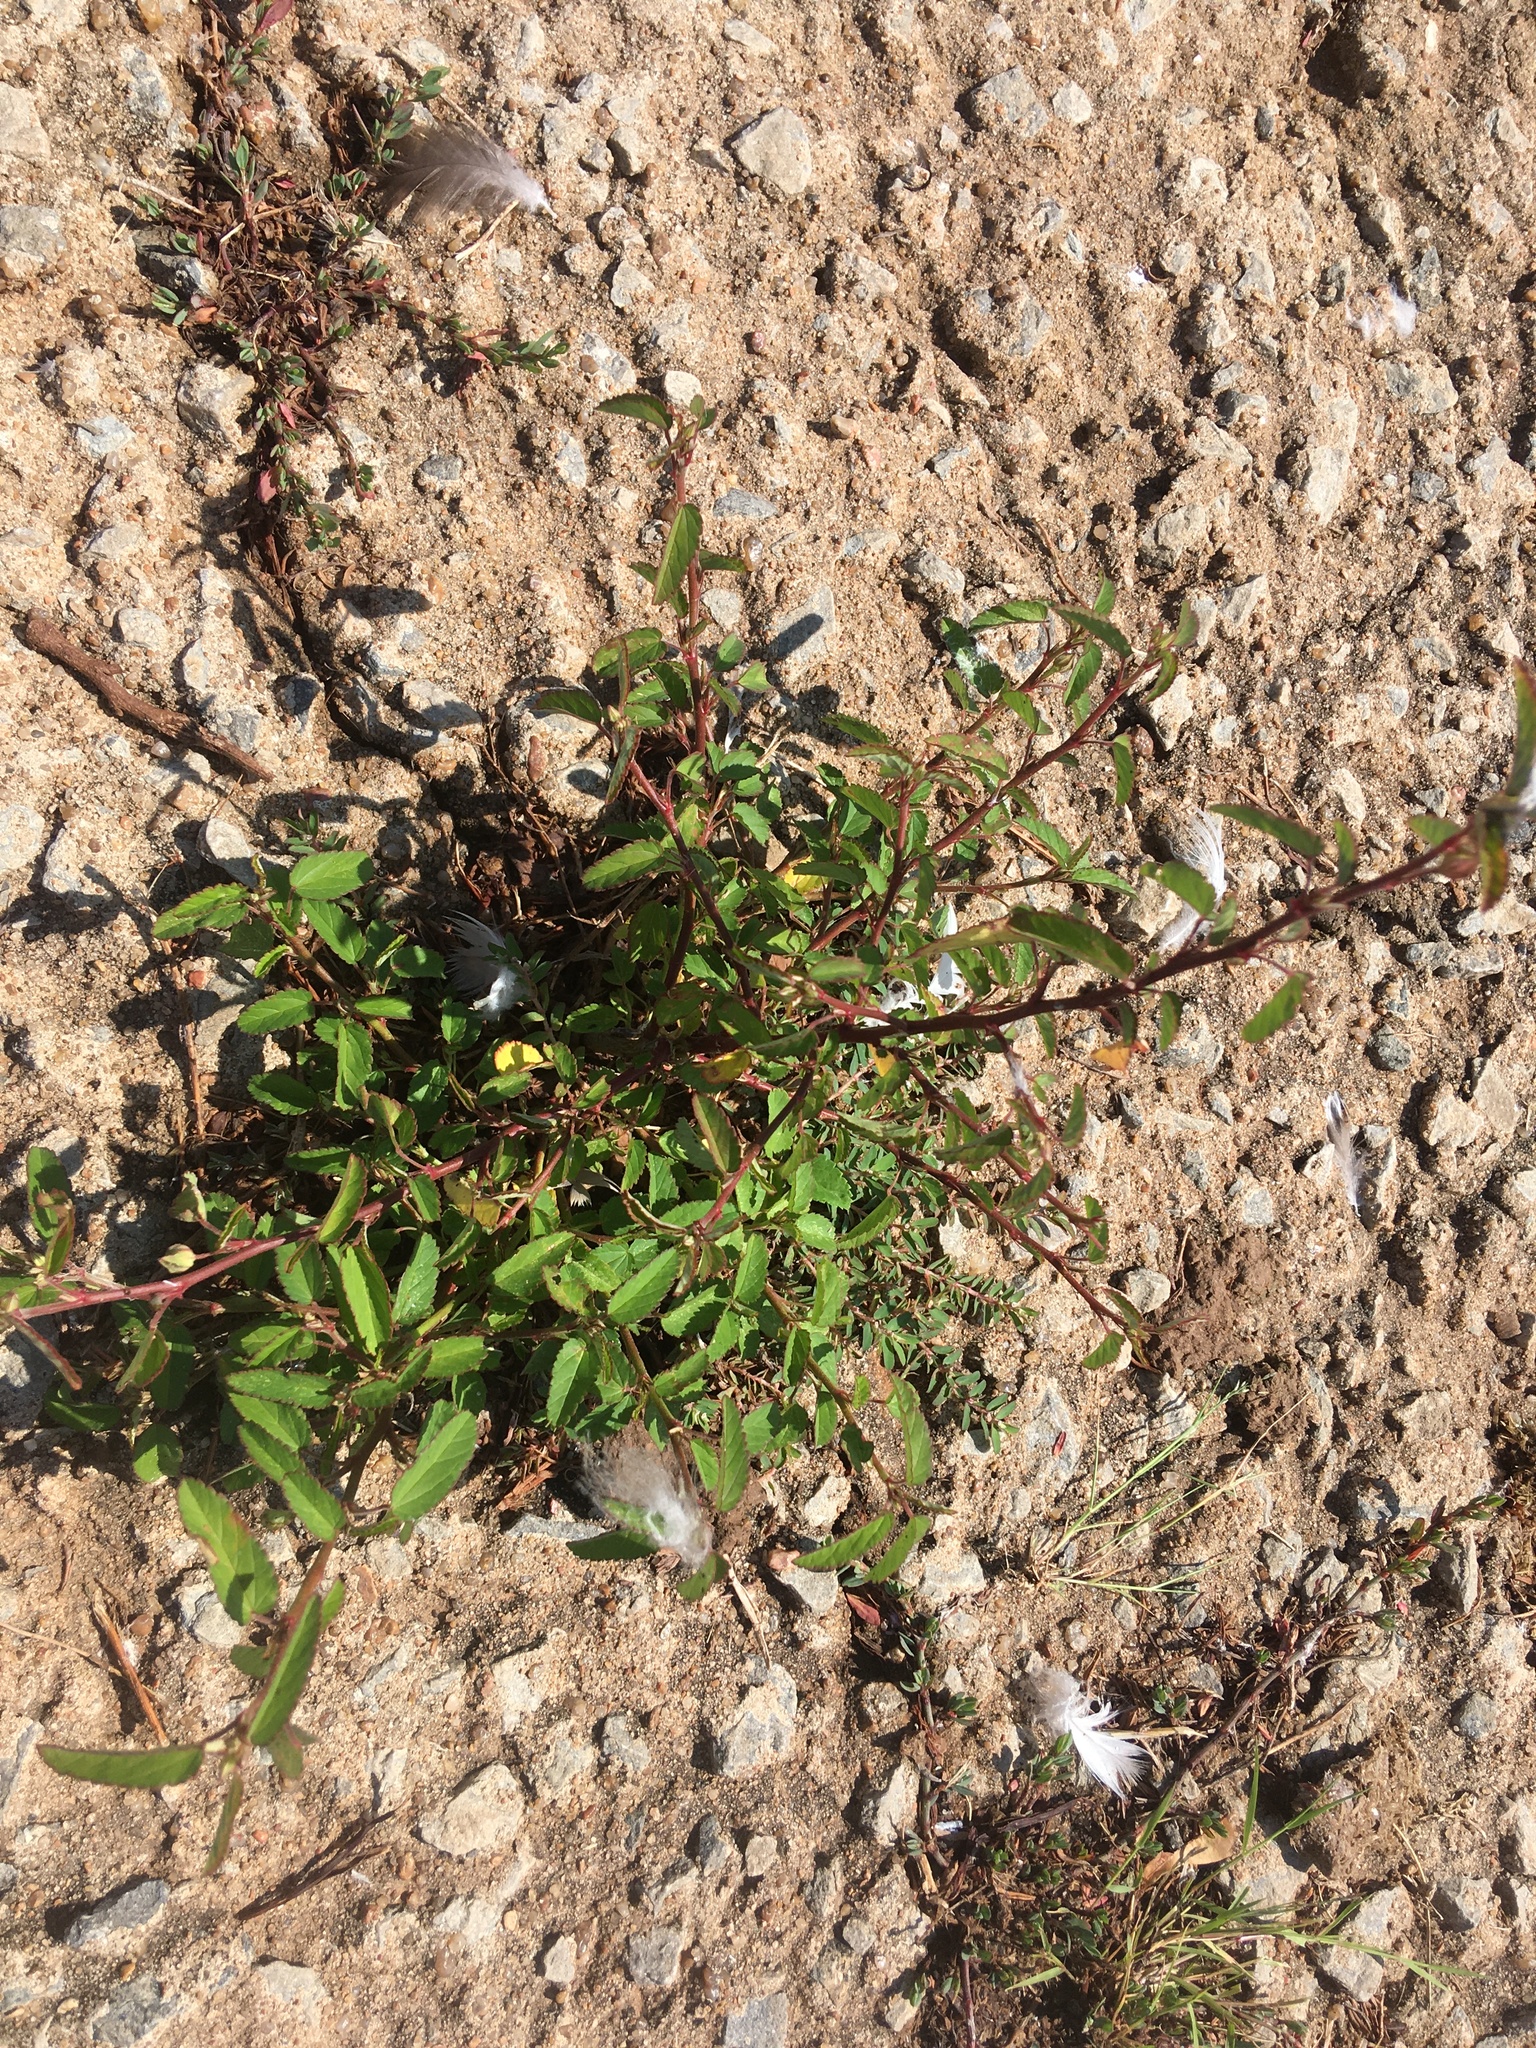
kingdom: Plantae
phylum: Tracheophyta
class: Magnoliopsida
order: Malvales
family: Malvaceae
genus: Sida
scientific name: Sida spinosa
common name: Prickly fanpetals
